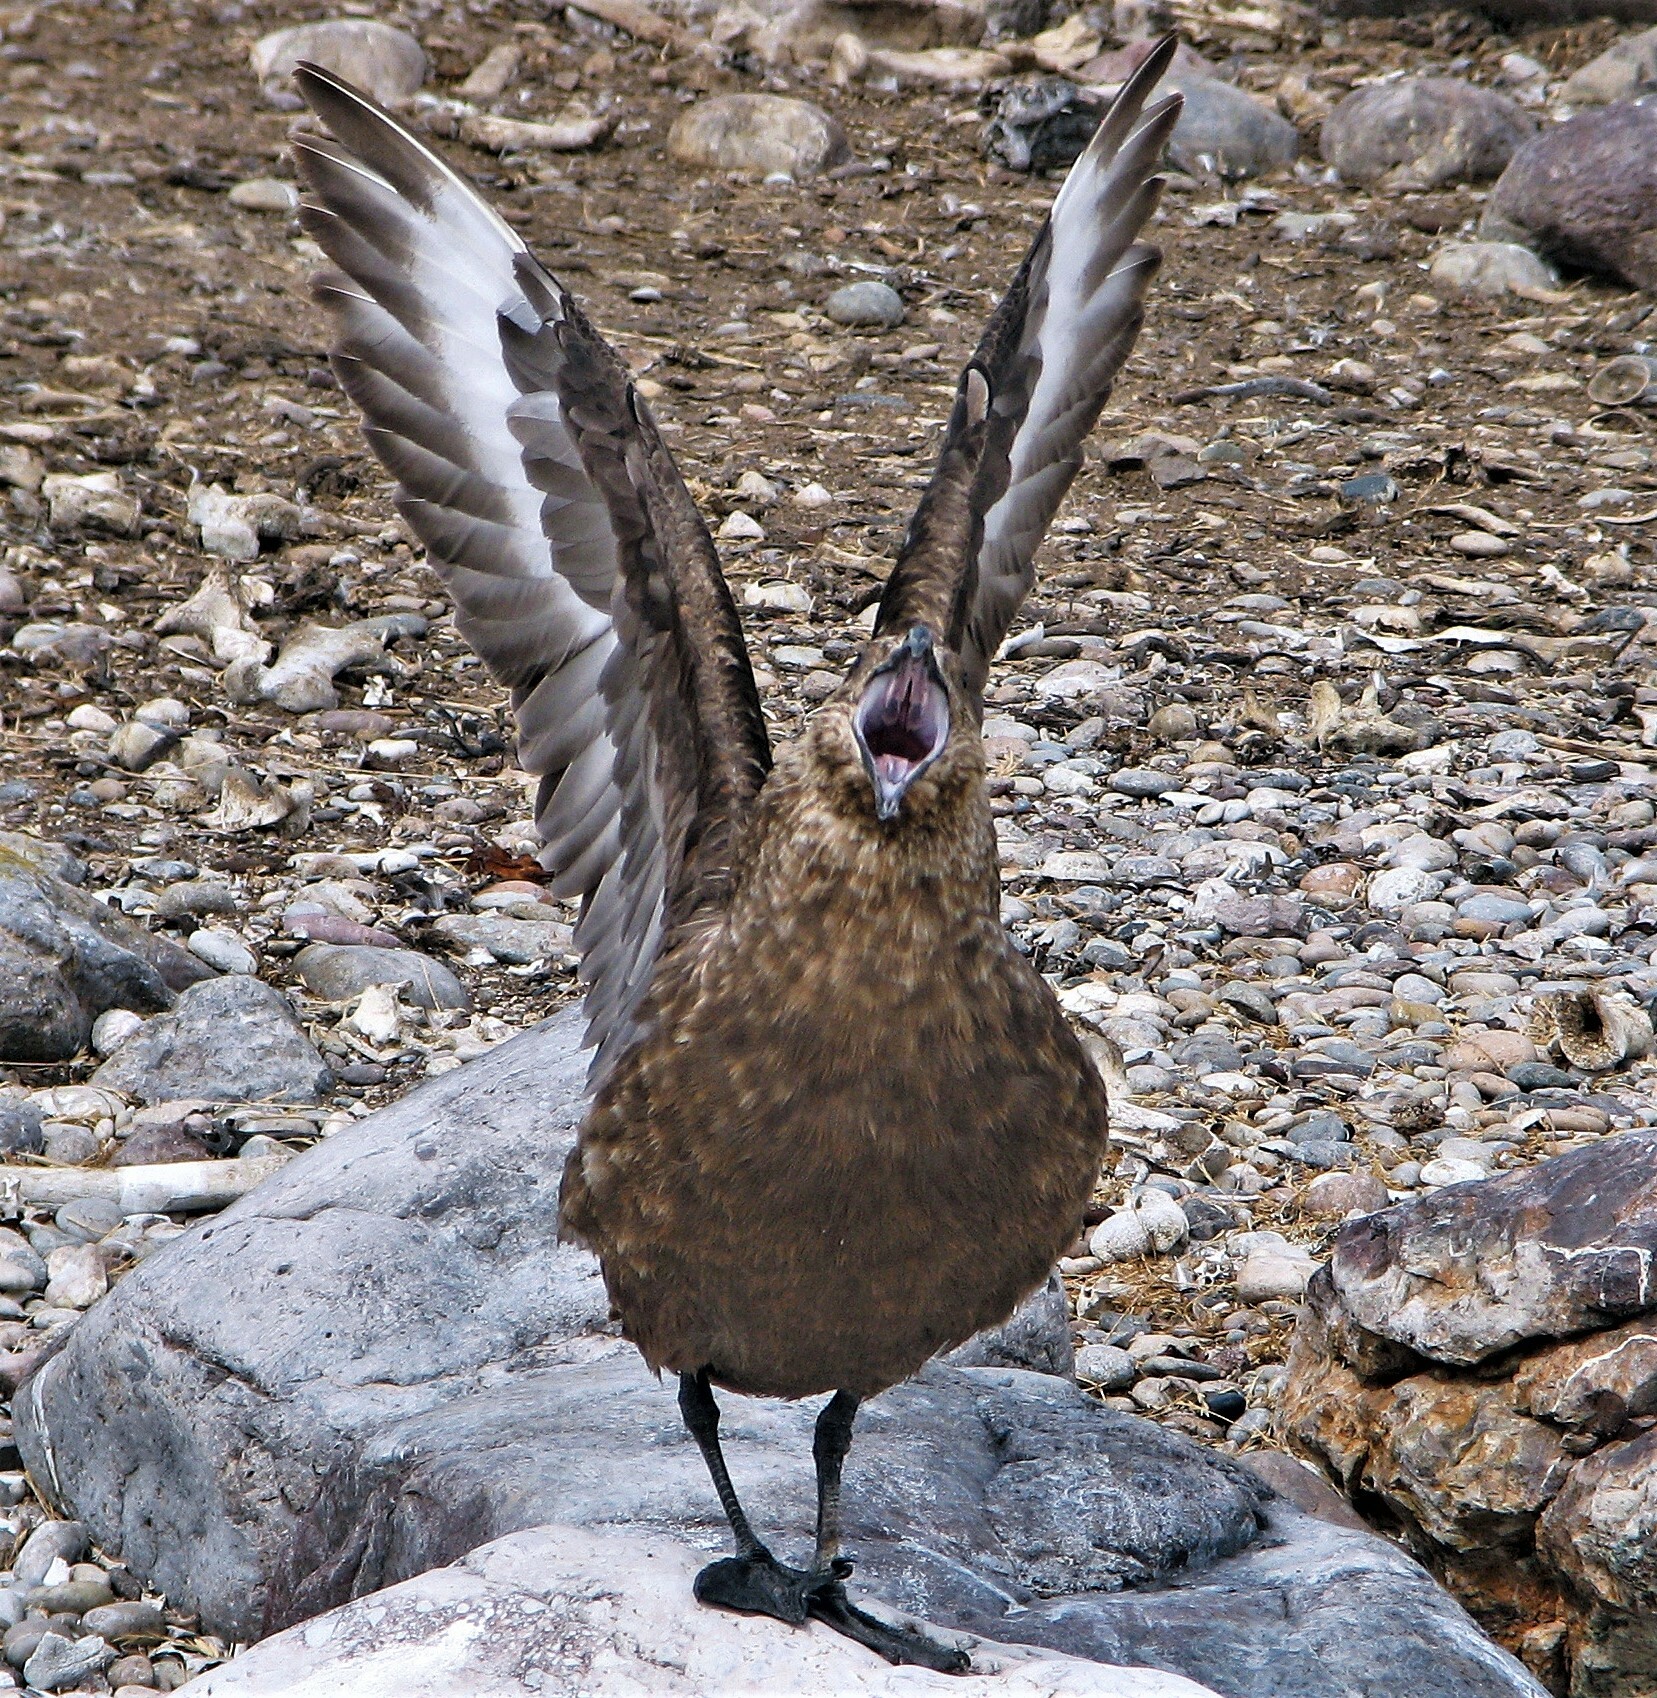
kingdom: Animalia
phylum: Chordata
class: Aves
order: Charadriiformes
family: Stercorariidae
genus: Stercorarius
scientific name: Stercorarius chilensis
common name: Chilean skua
